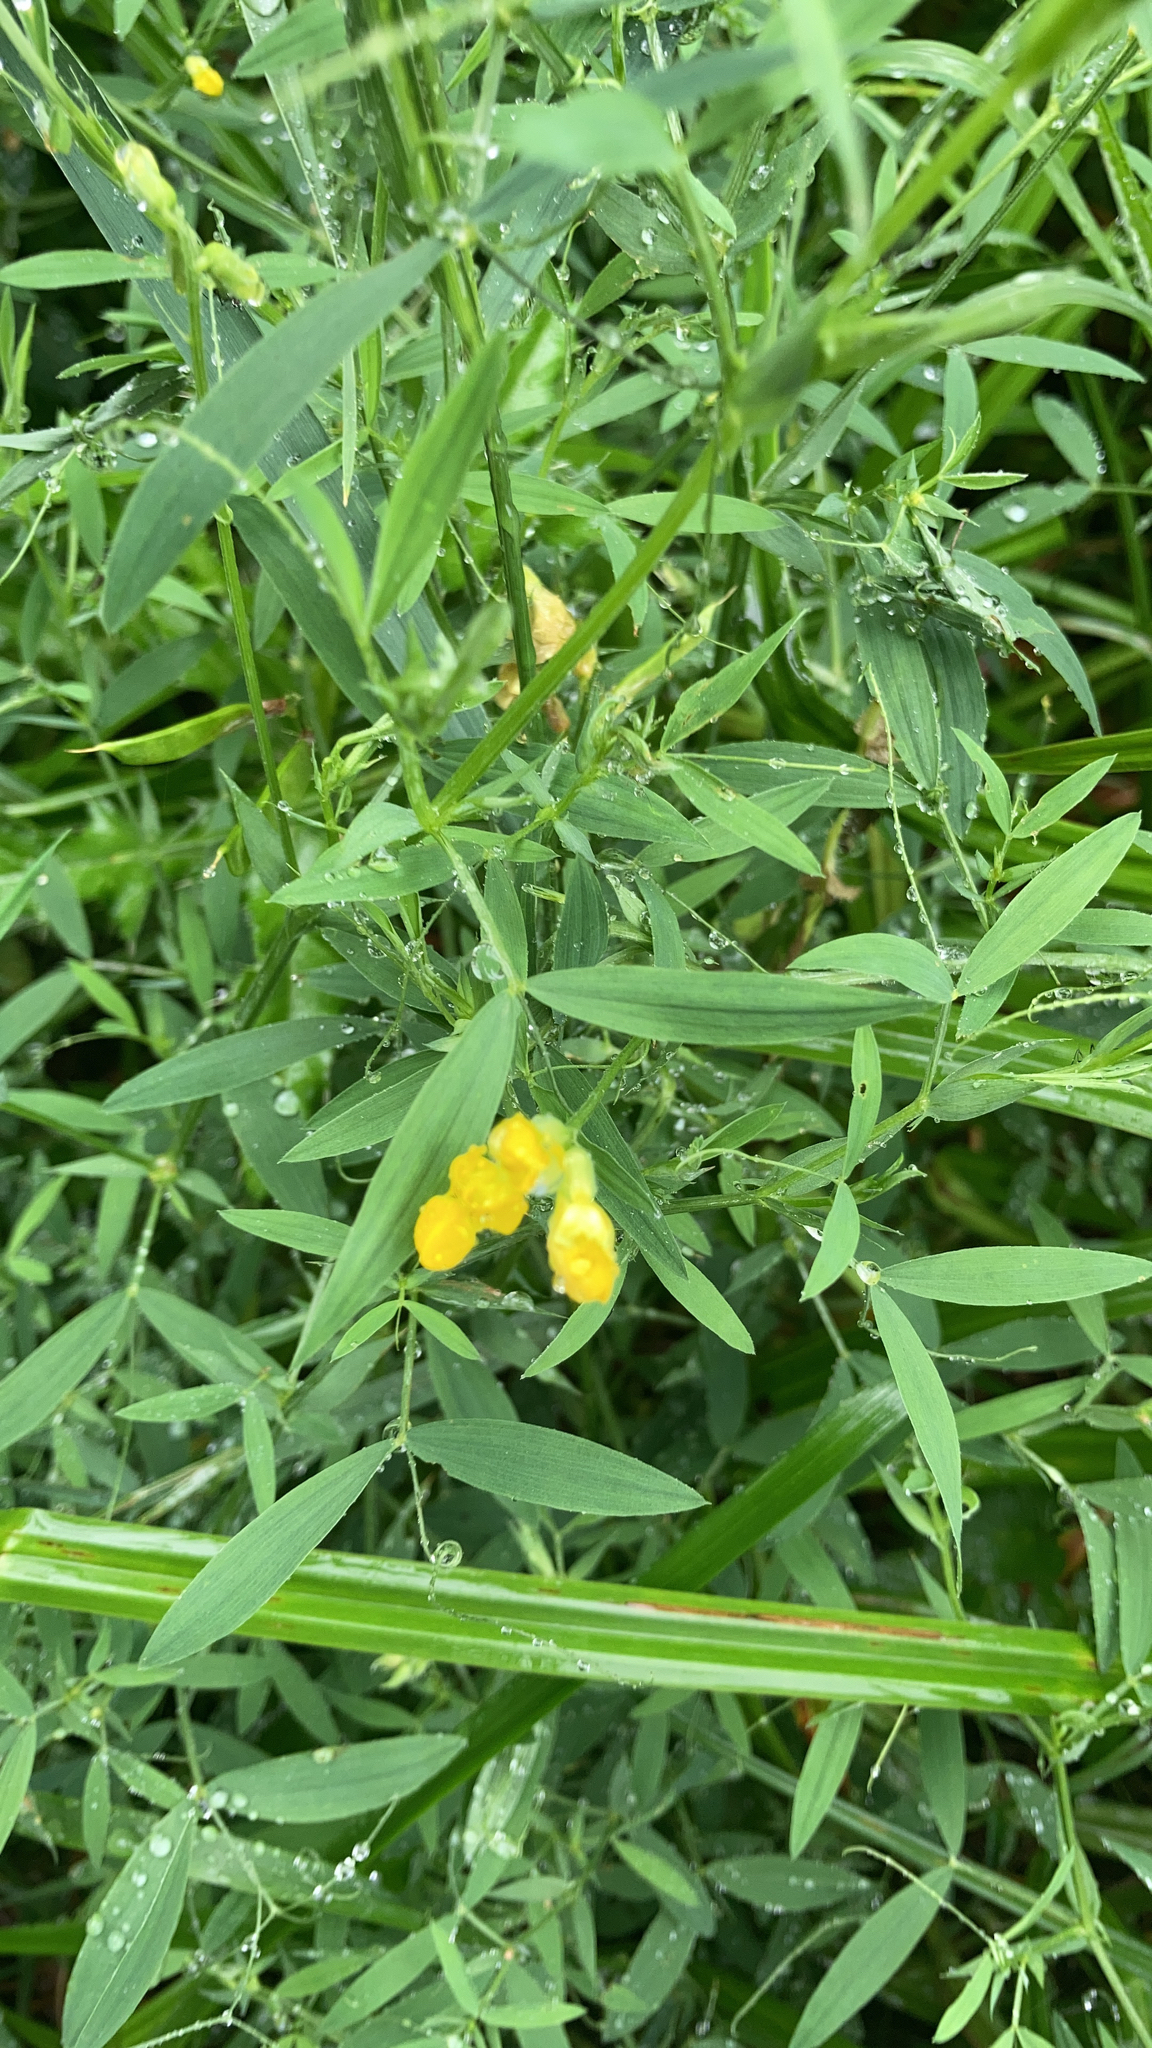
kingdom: Plantae
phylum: Tracheophyta
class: Magnoliopsida
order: Fabales
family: Fabaceae
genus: Lathyrus
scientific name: Lathyrus pratensis
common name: Meadow vetchling
